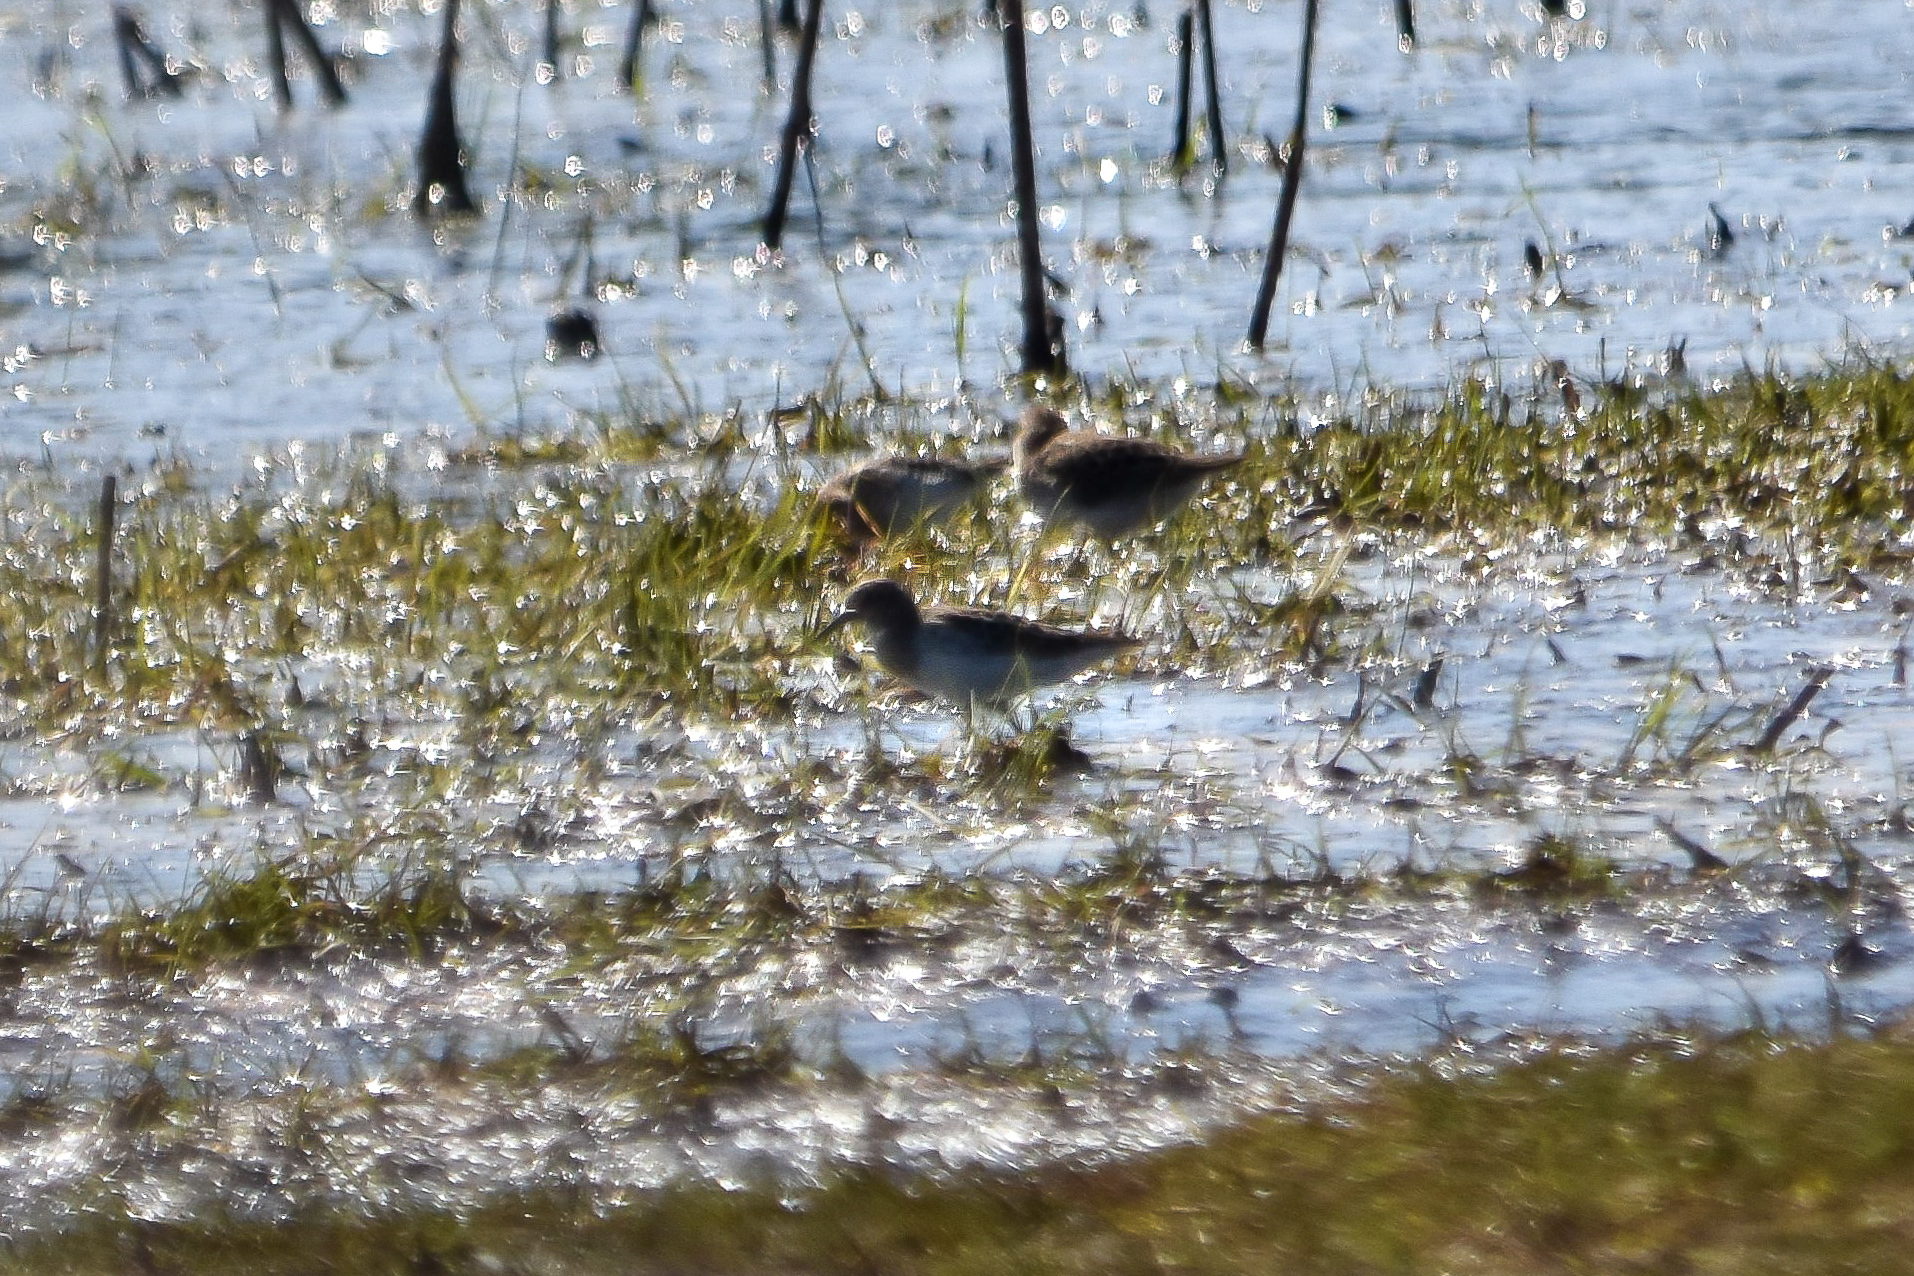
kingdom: Animalia
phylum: Chordata
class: Aves
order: Charadriiformes
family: Scolopacidae
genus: Calidris
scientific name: Calidris minutilla
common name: Least sandpiper
